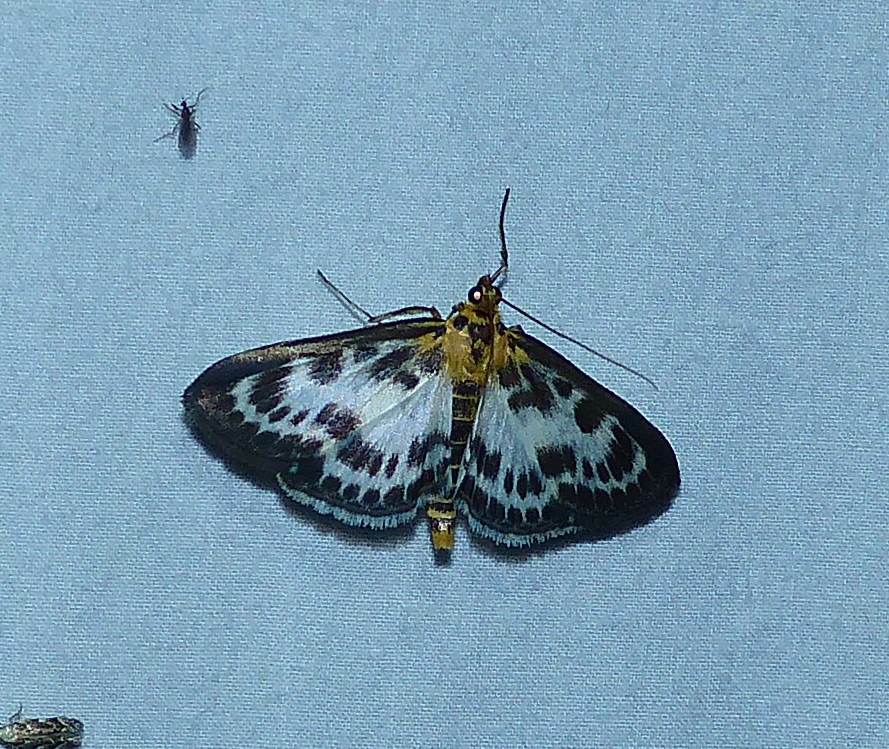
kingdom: Animalia
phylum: Arthropoda
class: Insecta
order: Lepidoptera
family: Crambidae
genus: Anania
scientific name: Anania hortulata
